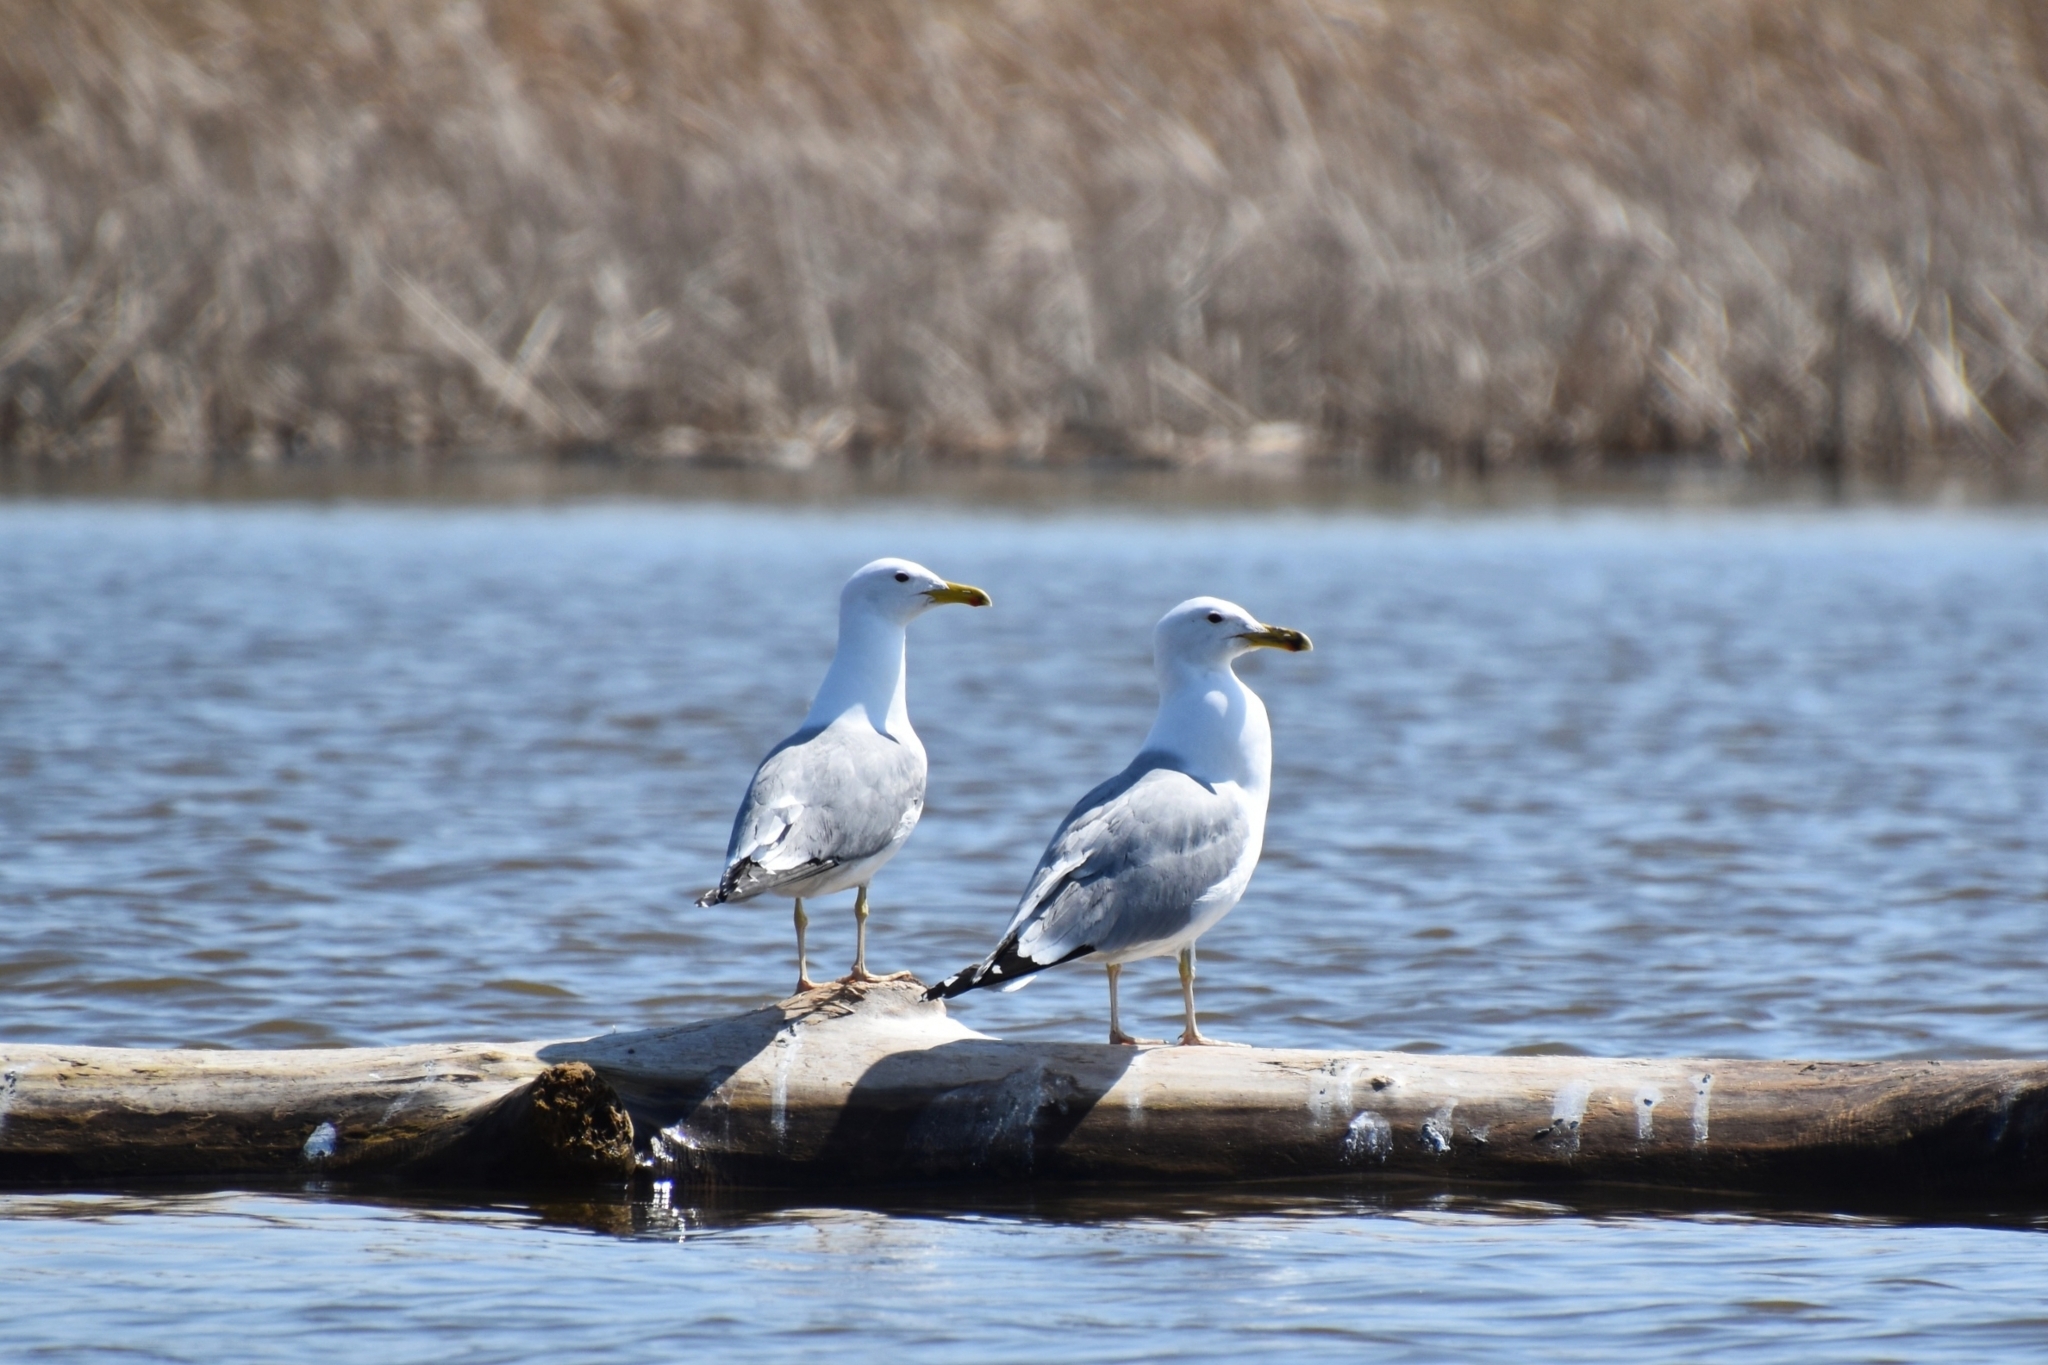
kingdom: Animalia
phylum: Chordata
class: Aves
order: Charadriiformes
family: Laridae
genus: Larus
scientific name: Larus cachinnans
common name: Caspian gull
